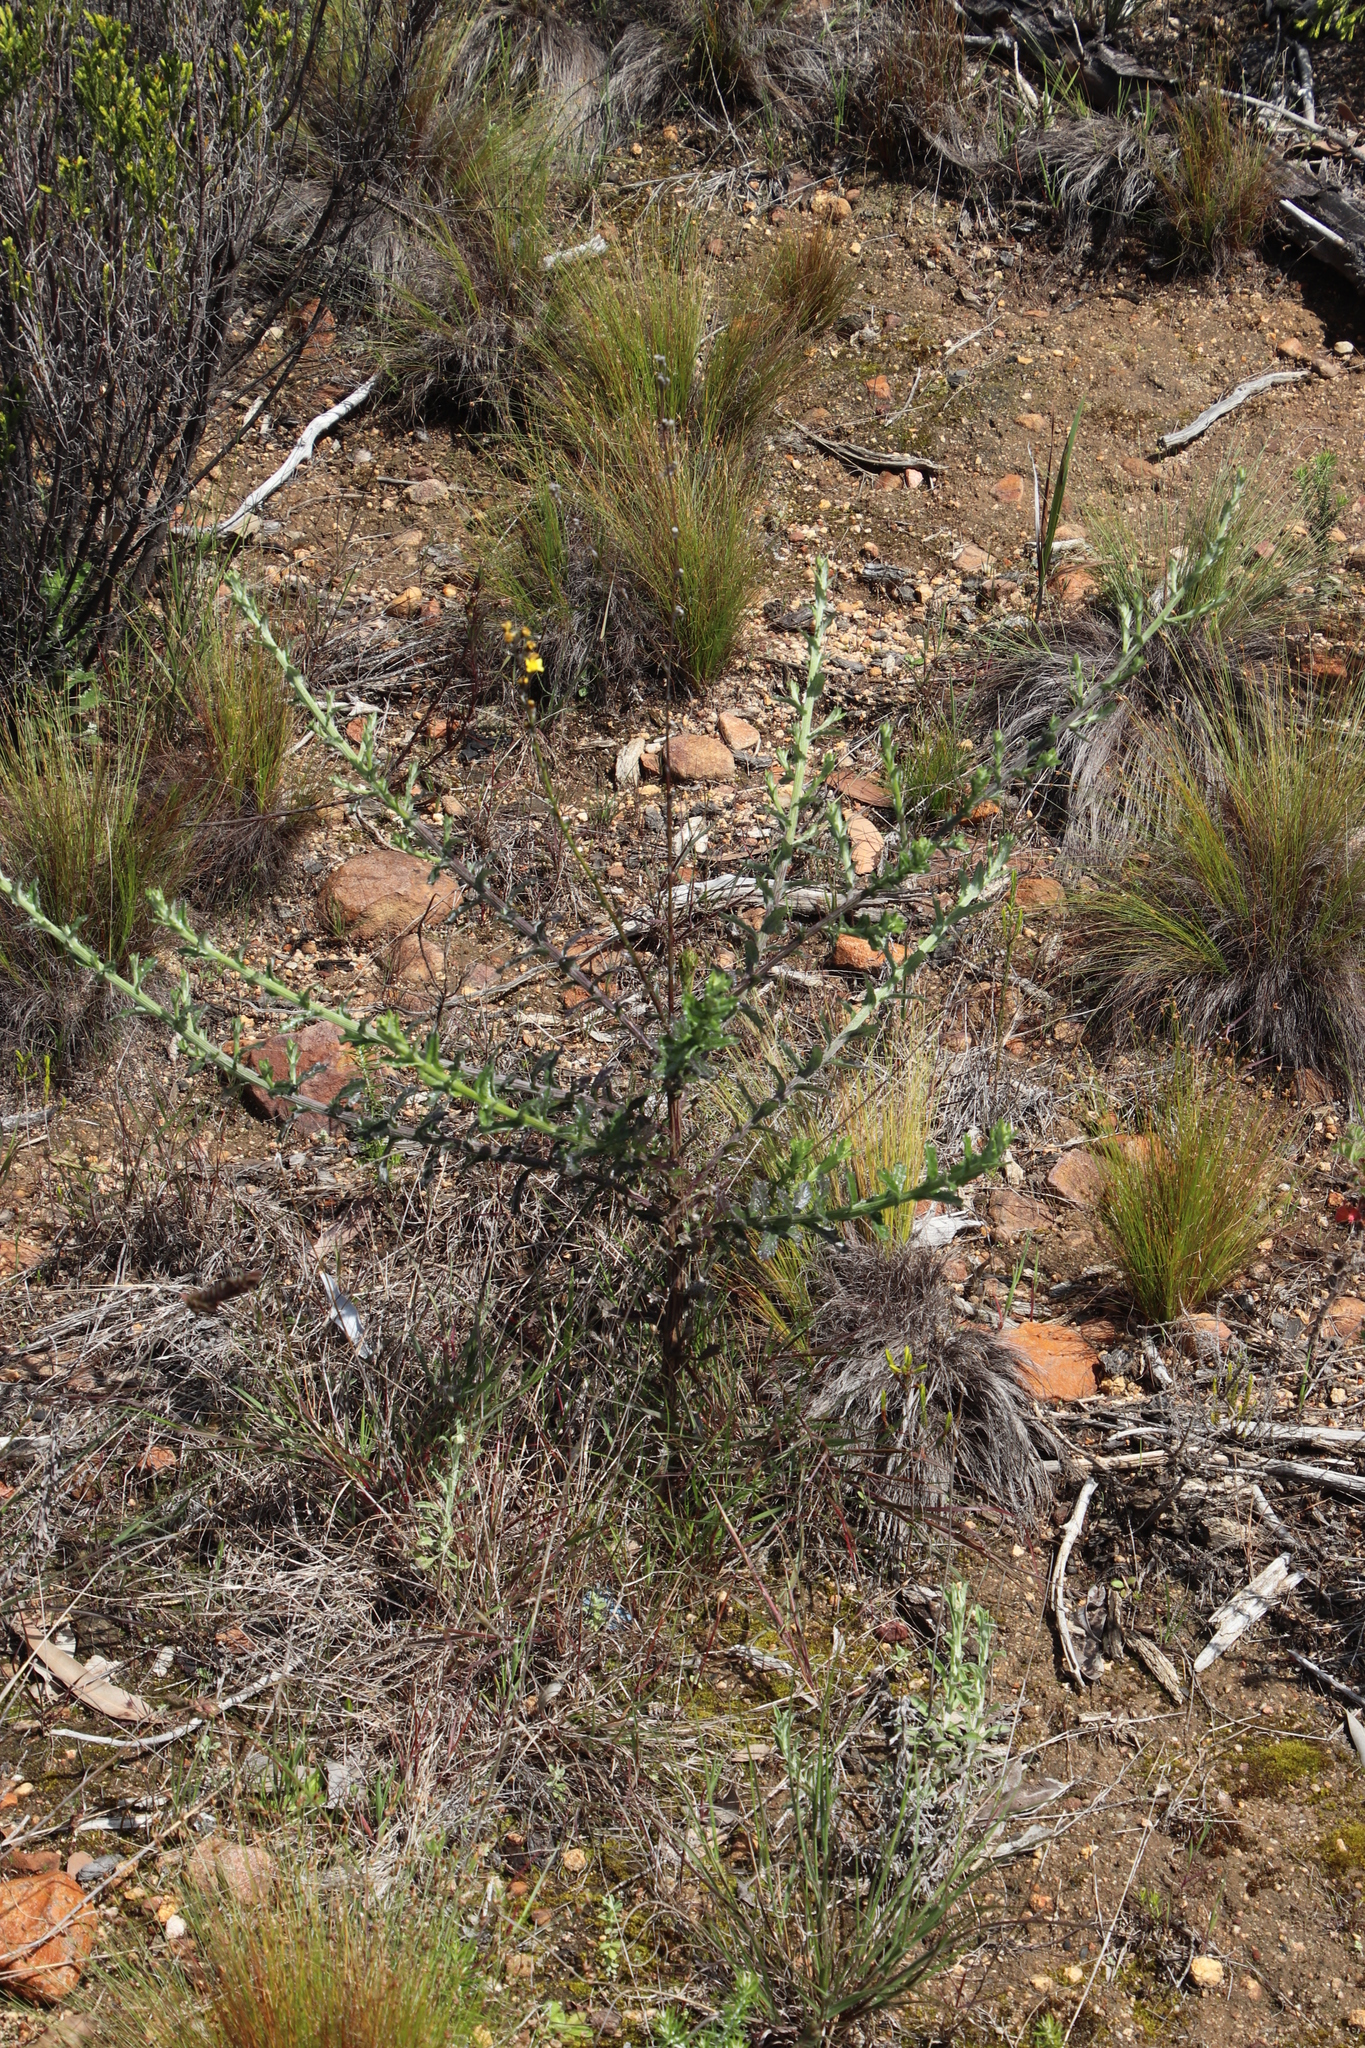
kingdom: Plantae
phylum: Tracheophyta
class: Magnoliopsida
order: Asterales
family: Asteraceae
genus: Senecio
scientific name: Senecio pubigerus
